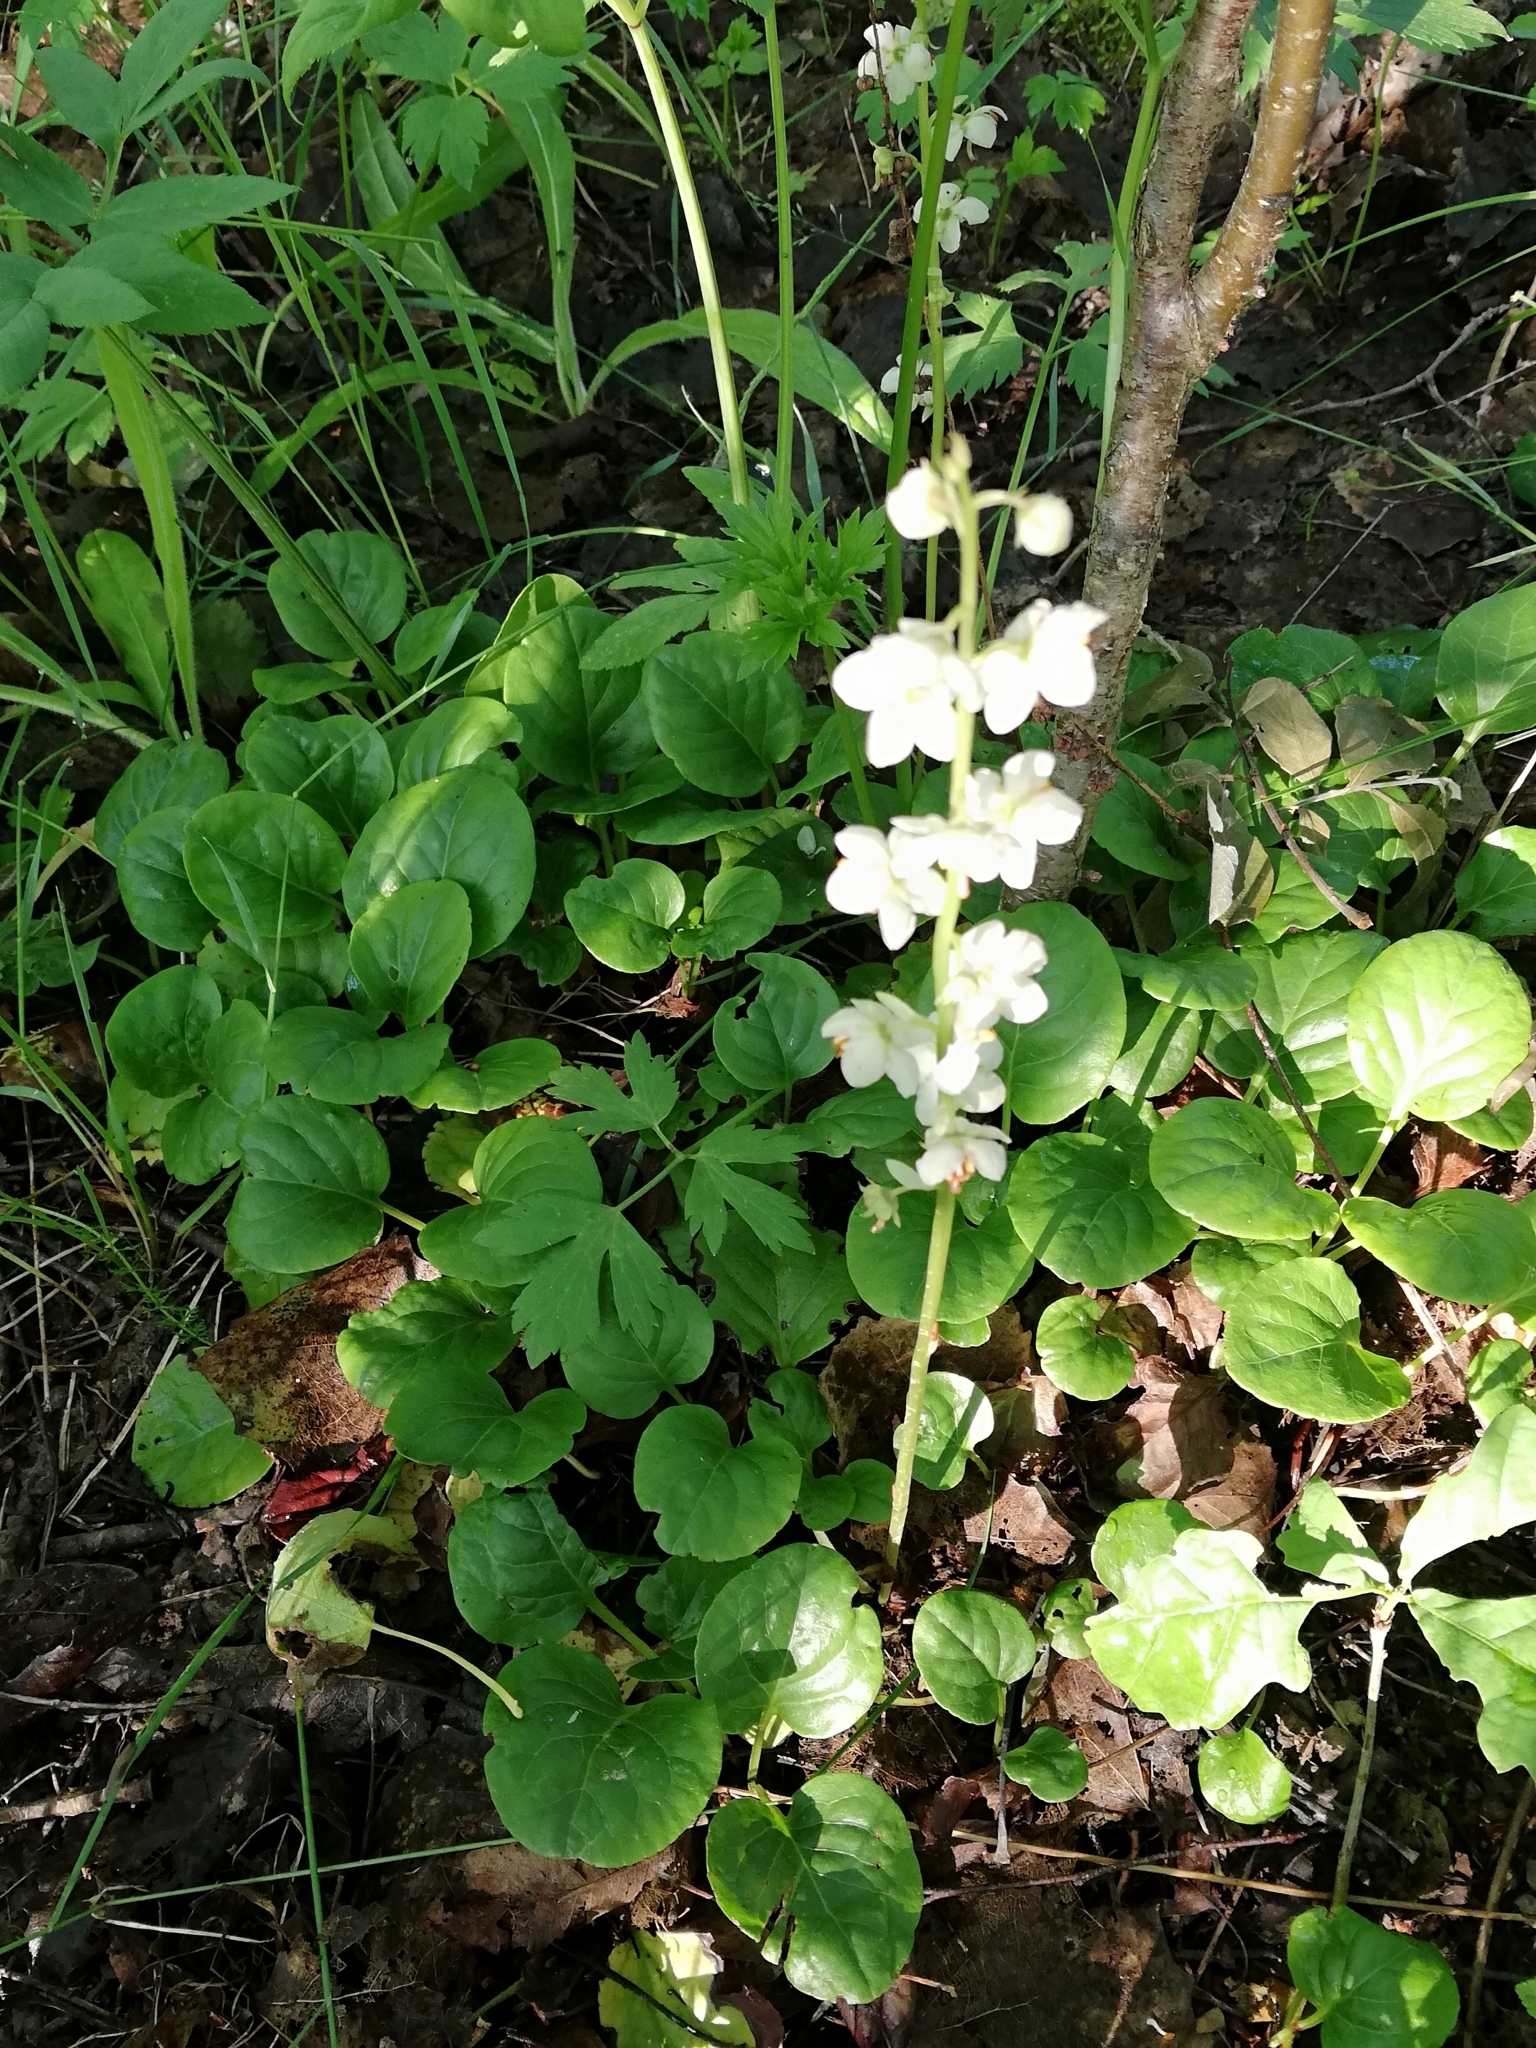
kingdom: Plantae
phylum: Tracheophyta
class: Magnoliopsida
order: Ericales
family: Ericaceae
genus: Pyrola
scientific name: Pyrola rotundifolia
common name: Round-leaved wintergreen
